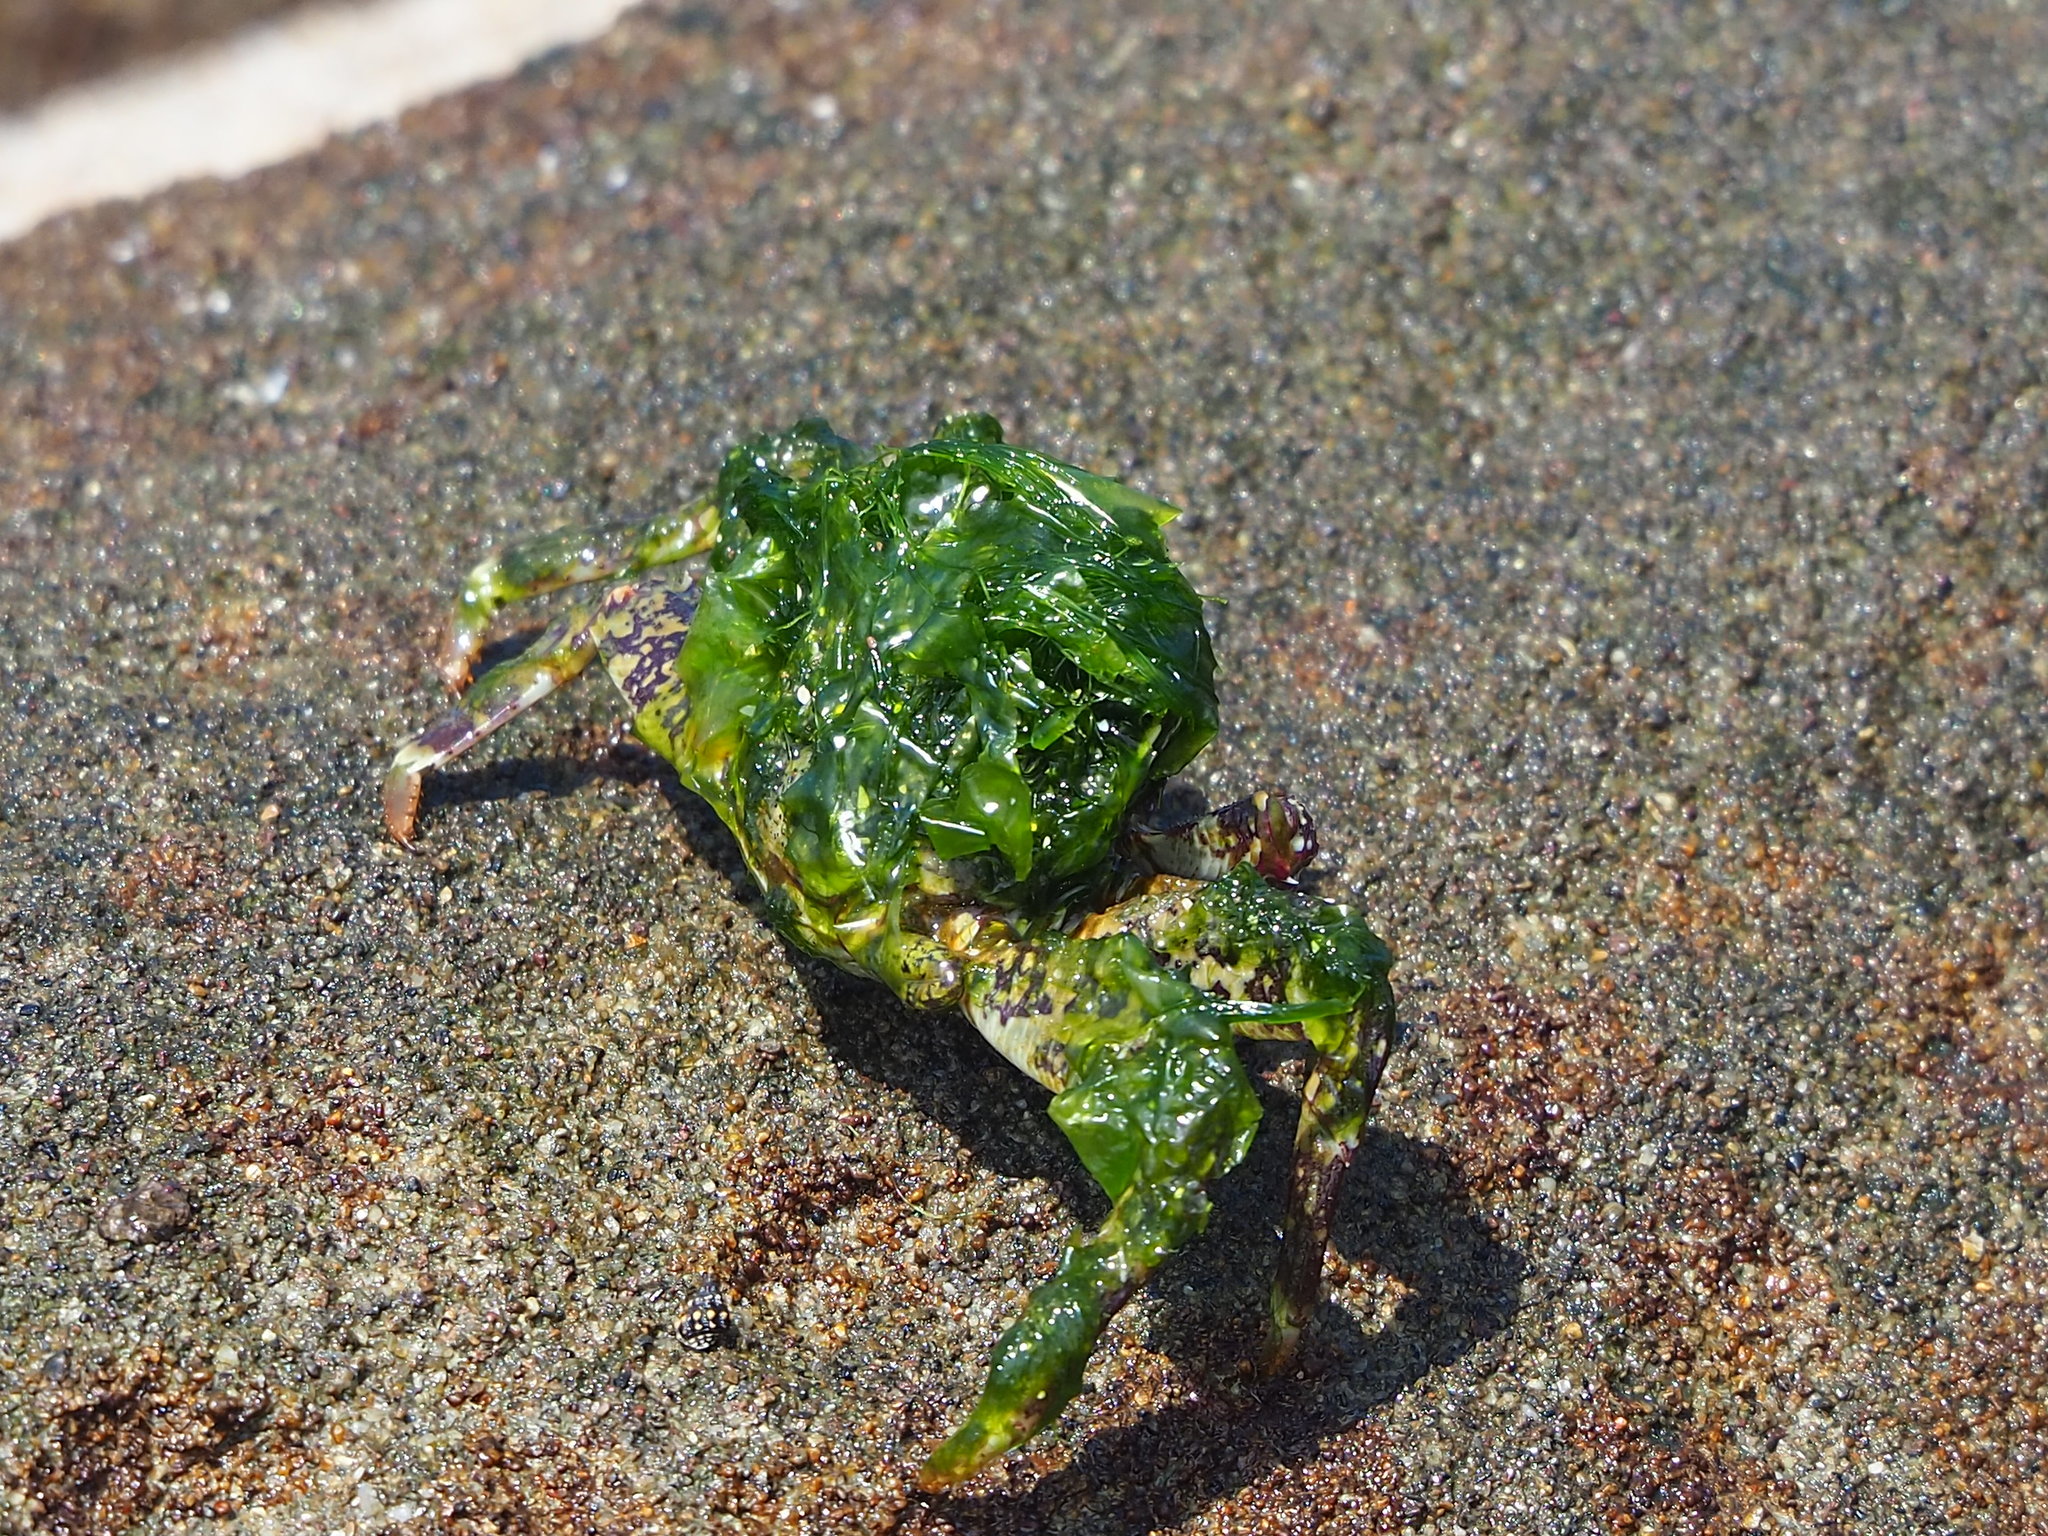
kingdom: Animalia
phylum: Arthropoda
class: Malacostraca
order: Decapoda
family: Grapsidae
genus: Grapsus
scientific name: Grapsus albolineatus
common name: Mottled lightfoot crab
